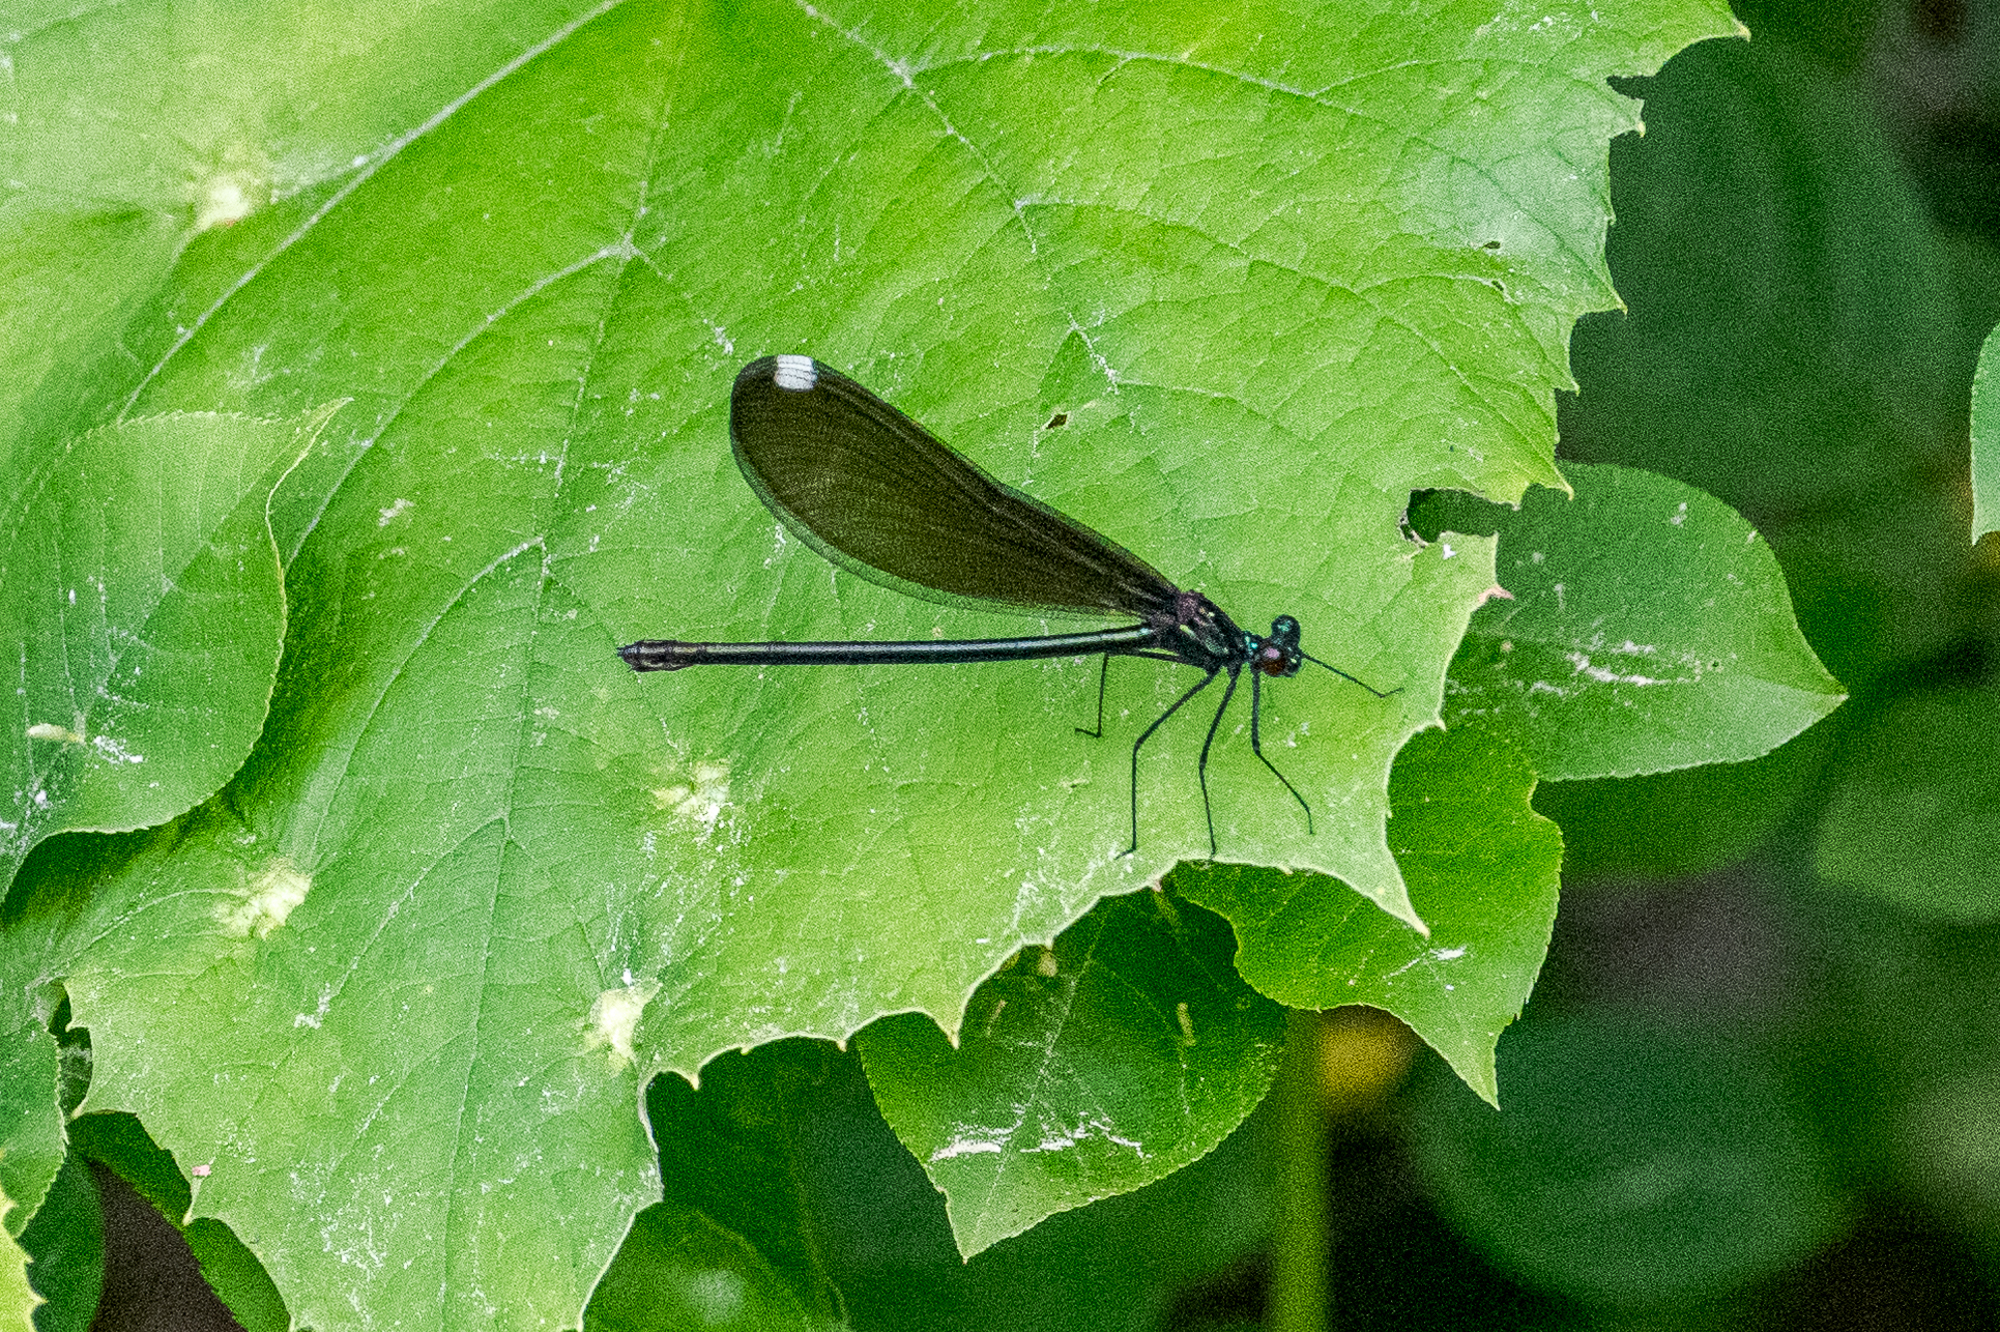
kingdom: Animalia
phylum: Arthropoda
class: Insecta
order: Odonata
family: Calopterygidae
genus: Calopteryx
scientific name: Calopteryx maculata
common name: Ebony jewelwing
